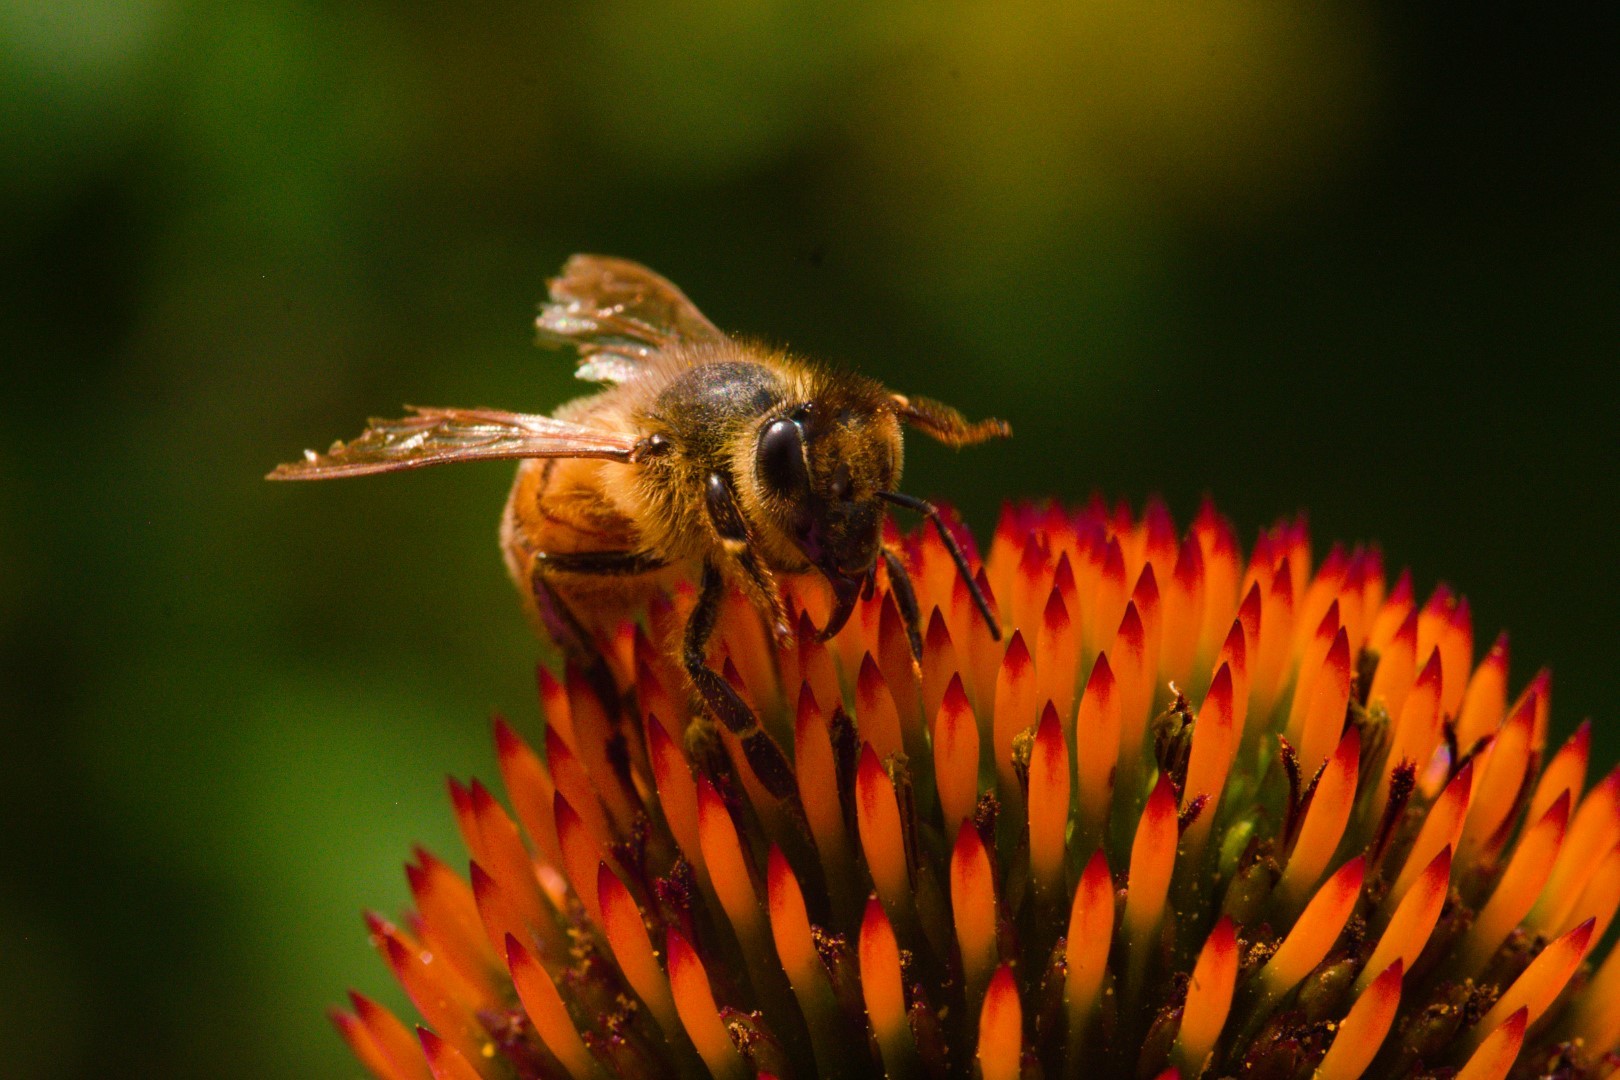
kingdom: Animalia
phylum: Arthropoda
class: Insecta
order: Hymenoptera
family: Apidae
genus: Apis
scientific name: Apis mellifera
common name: Honey bee
